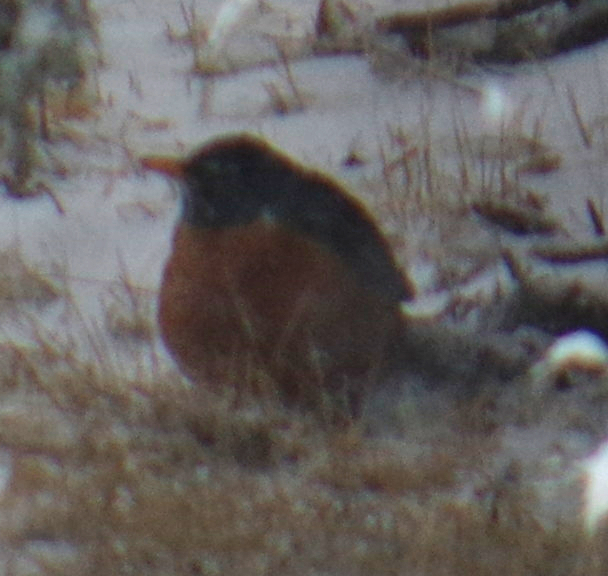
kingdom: Animalia
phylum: Chordata
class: Aves
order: Passeriformes
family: Turdidae
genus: Turdus
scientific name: Turdus migratorius
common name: American robin
